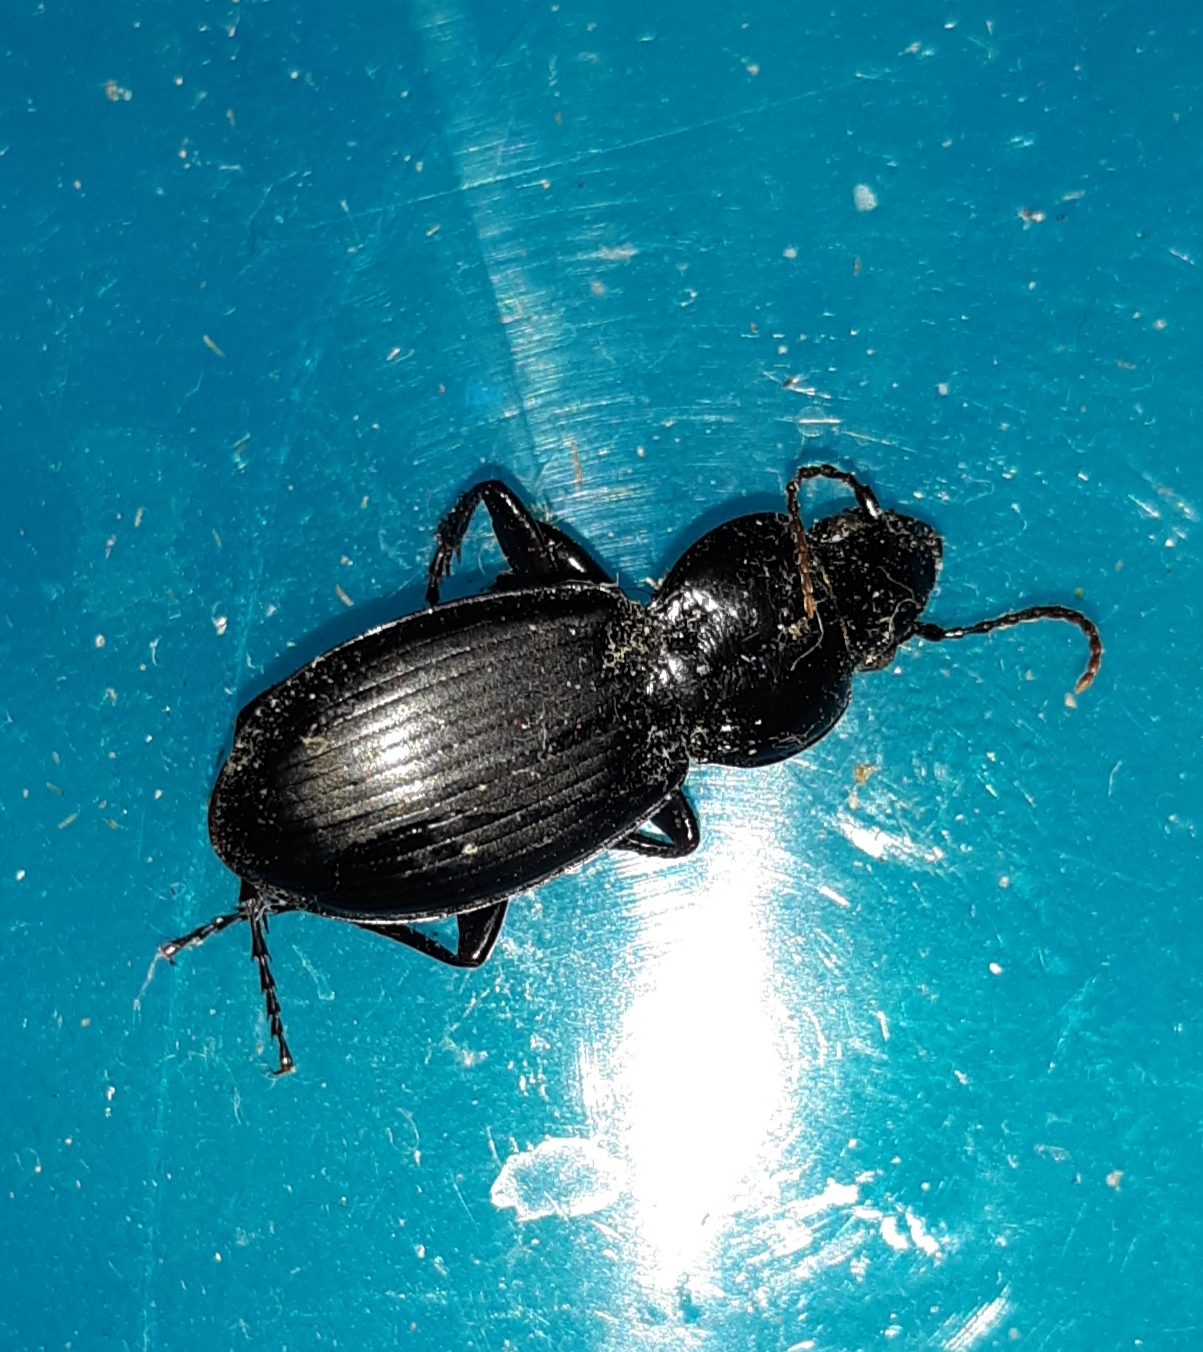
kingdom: Animalia
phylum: Arthropoda
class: Insecta
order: Coleoptera
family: Carabidae
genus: Cyclotrachelus
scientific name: Cyclotrachelus sodalis
